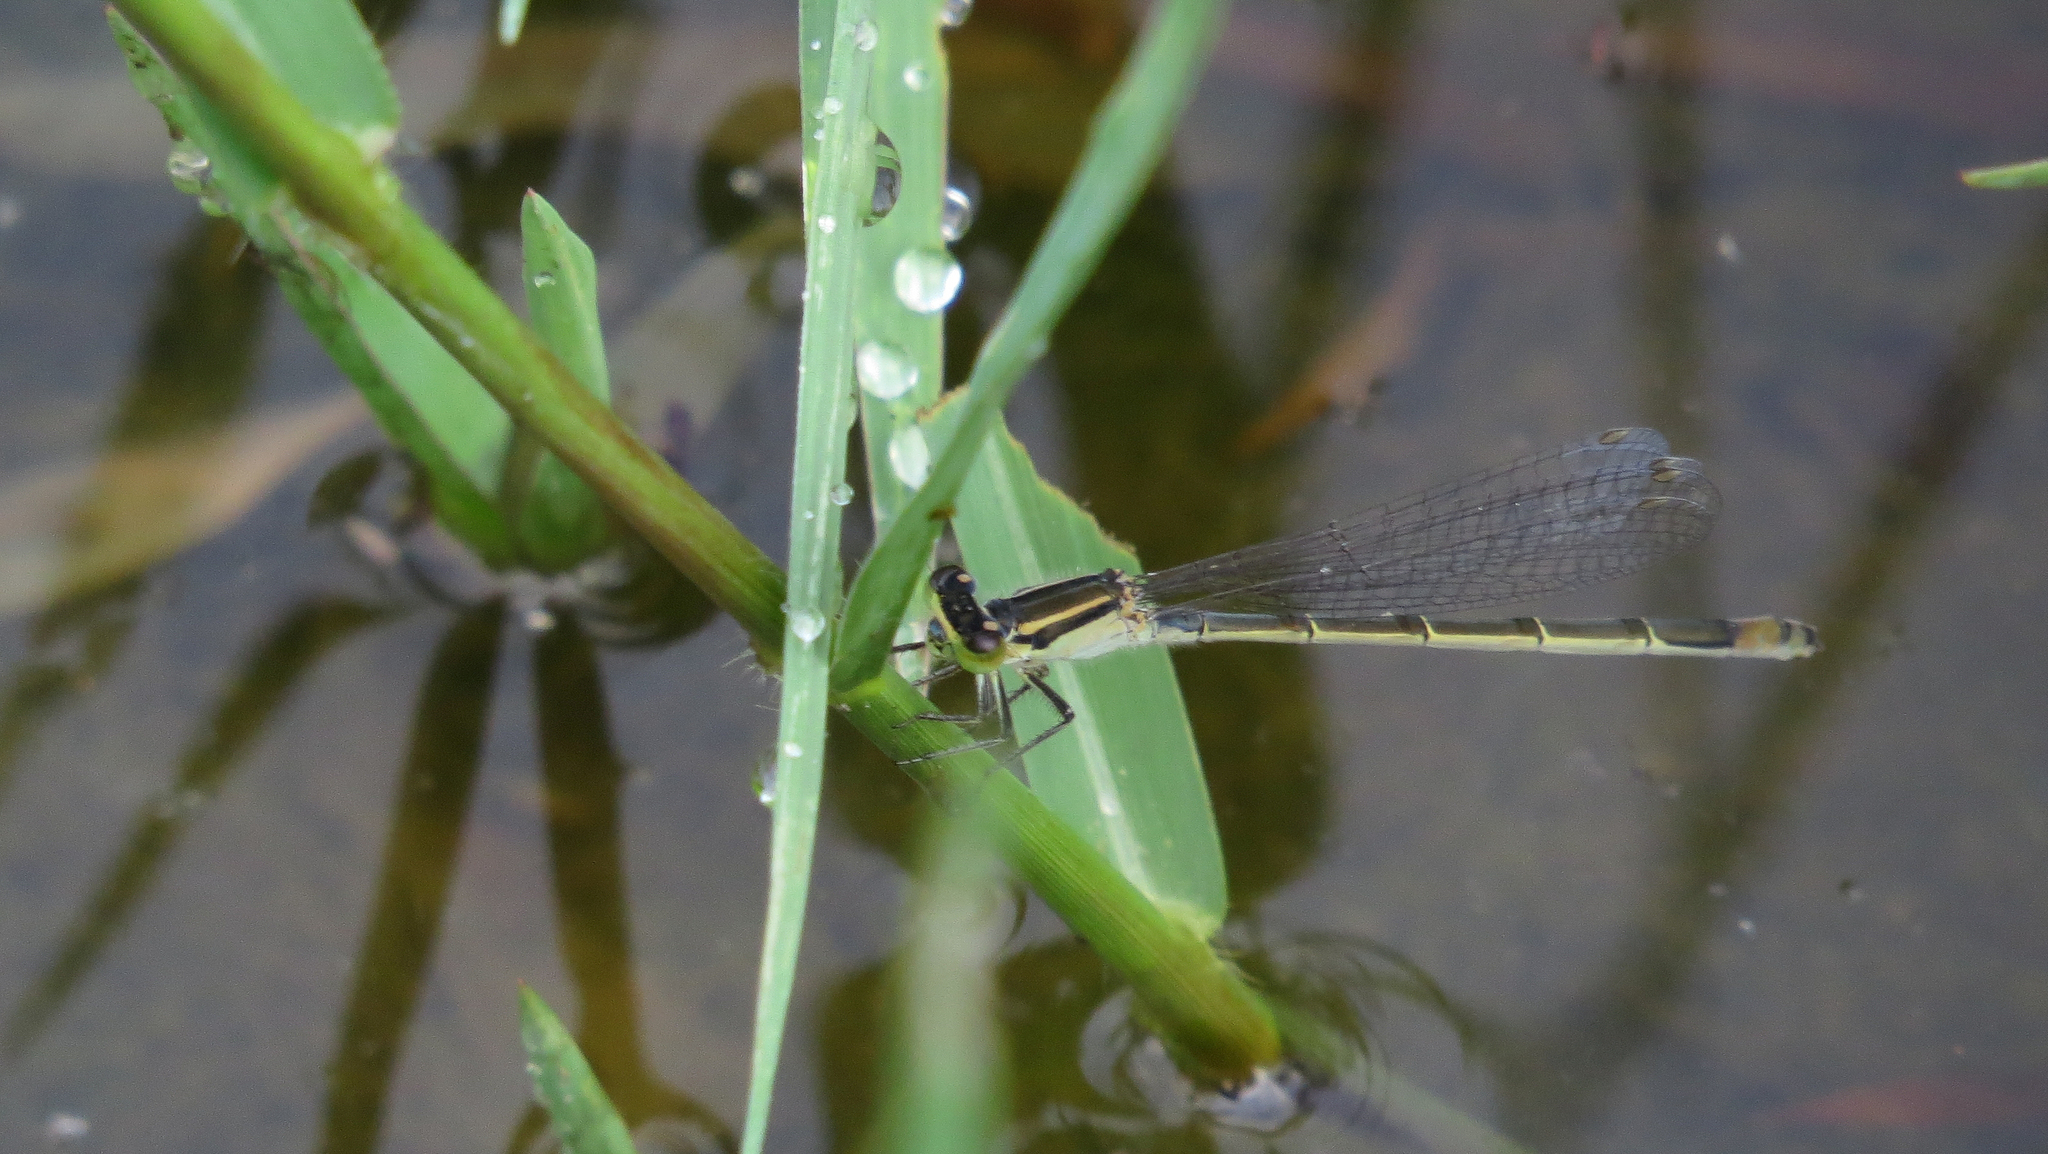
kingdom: Animalia
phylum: Arthropoda
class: Insecta
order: Odonata
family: Coenagrionidae
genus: Ischnura
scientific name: Ischnura heterosticta
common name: Common bluetail
